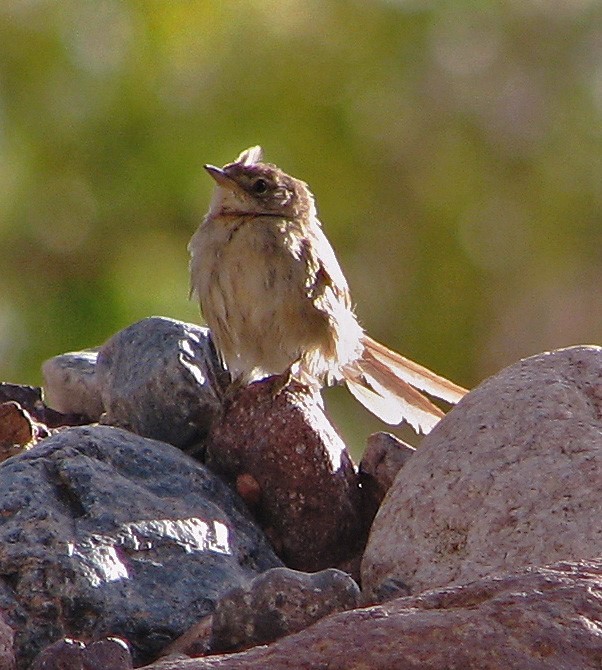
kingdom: Animalia
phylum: Chordata
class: Aves
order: Passeriformes
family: Furnariidae
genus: Asthenes
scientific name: Asthenes modesta
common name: Cordilleran canastero
